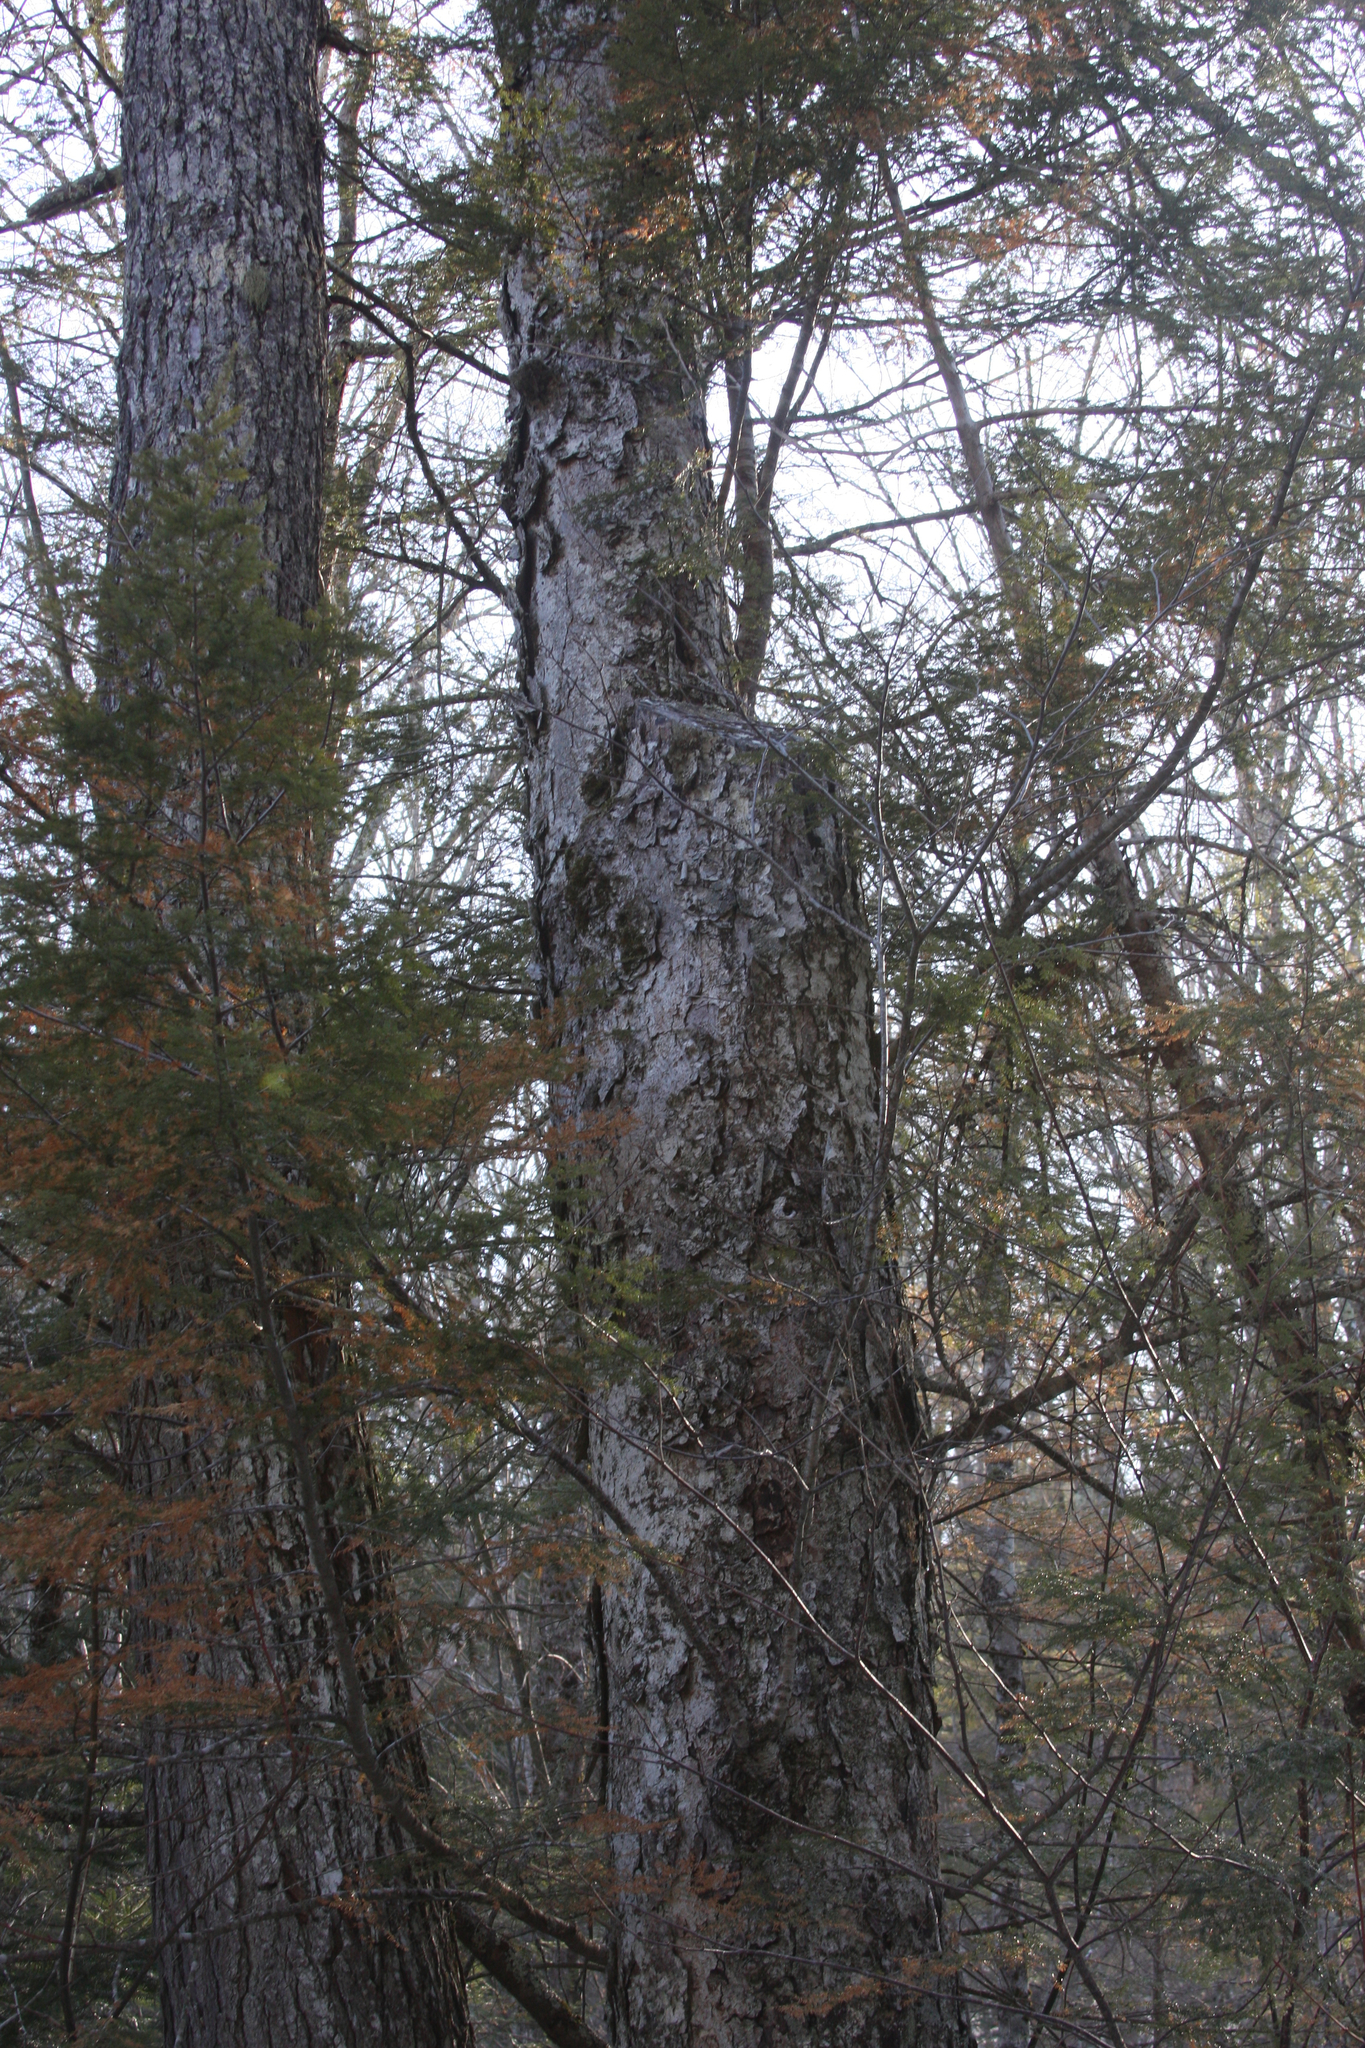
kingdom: Plantae
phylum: Tracheophyta
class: Magnoliopsida
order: Fagales
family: Betulaceae
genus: Betula
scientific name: Betula alleghaniensis
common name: Yellow birch
